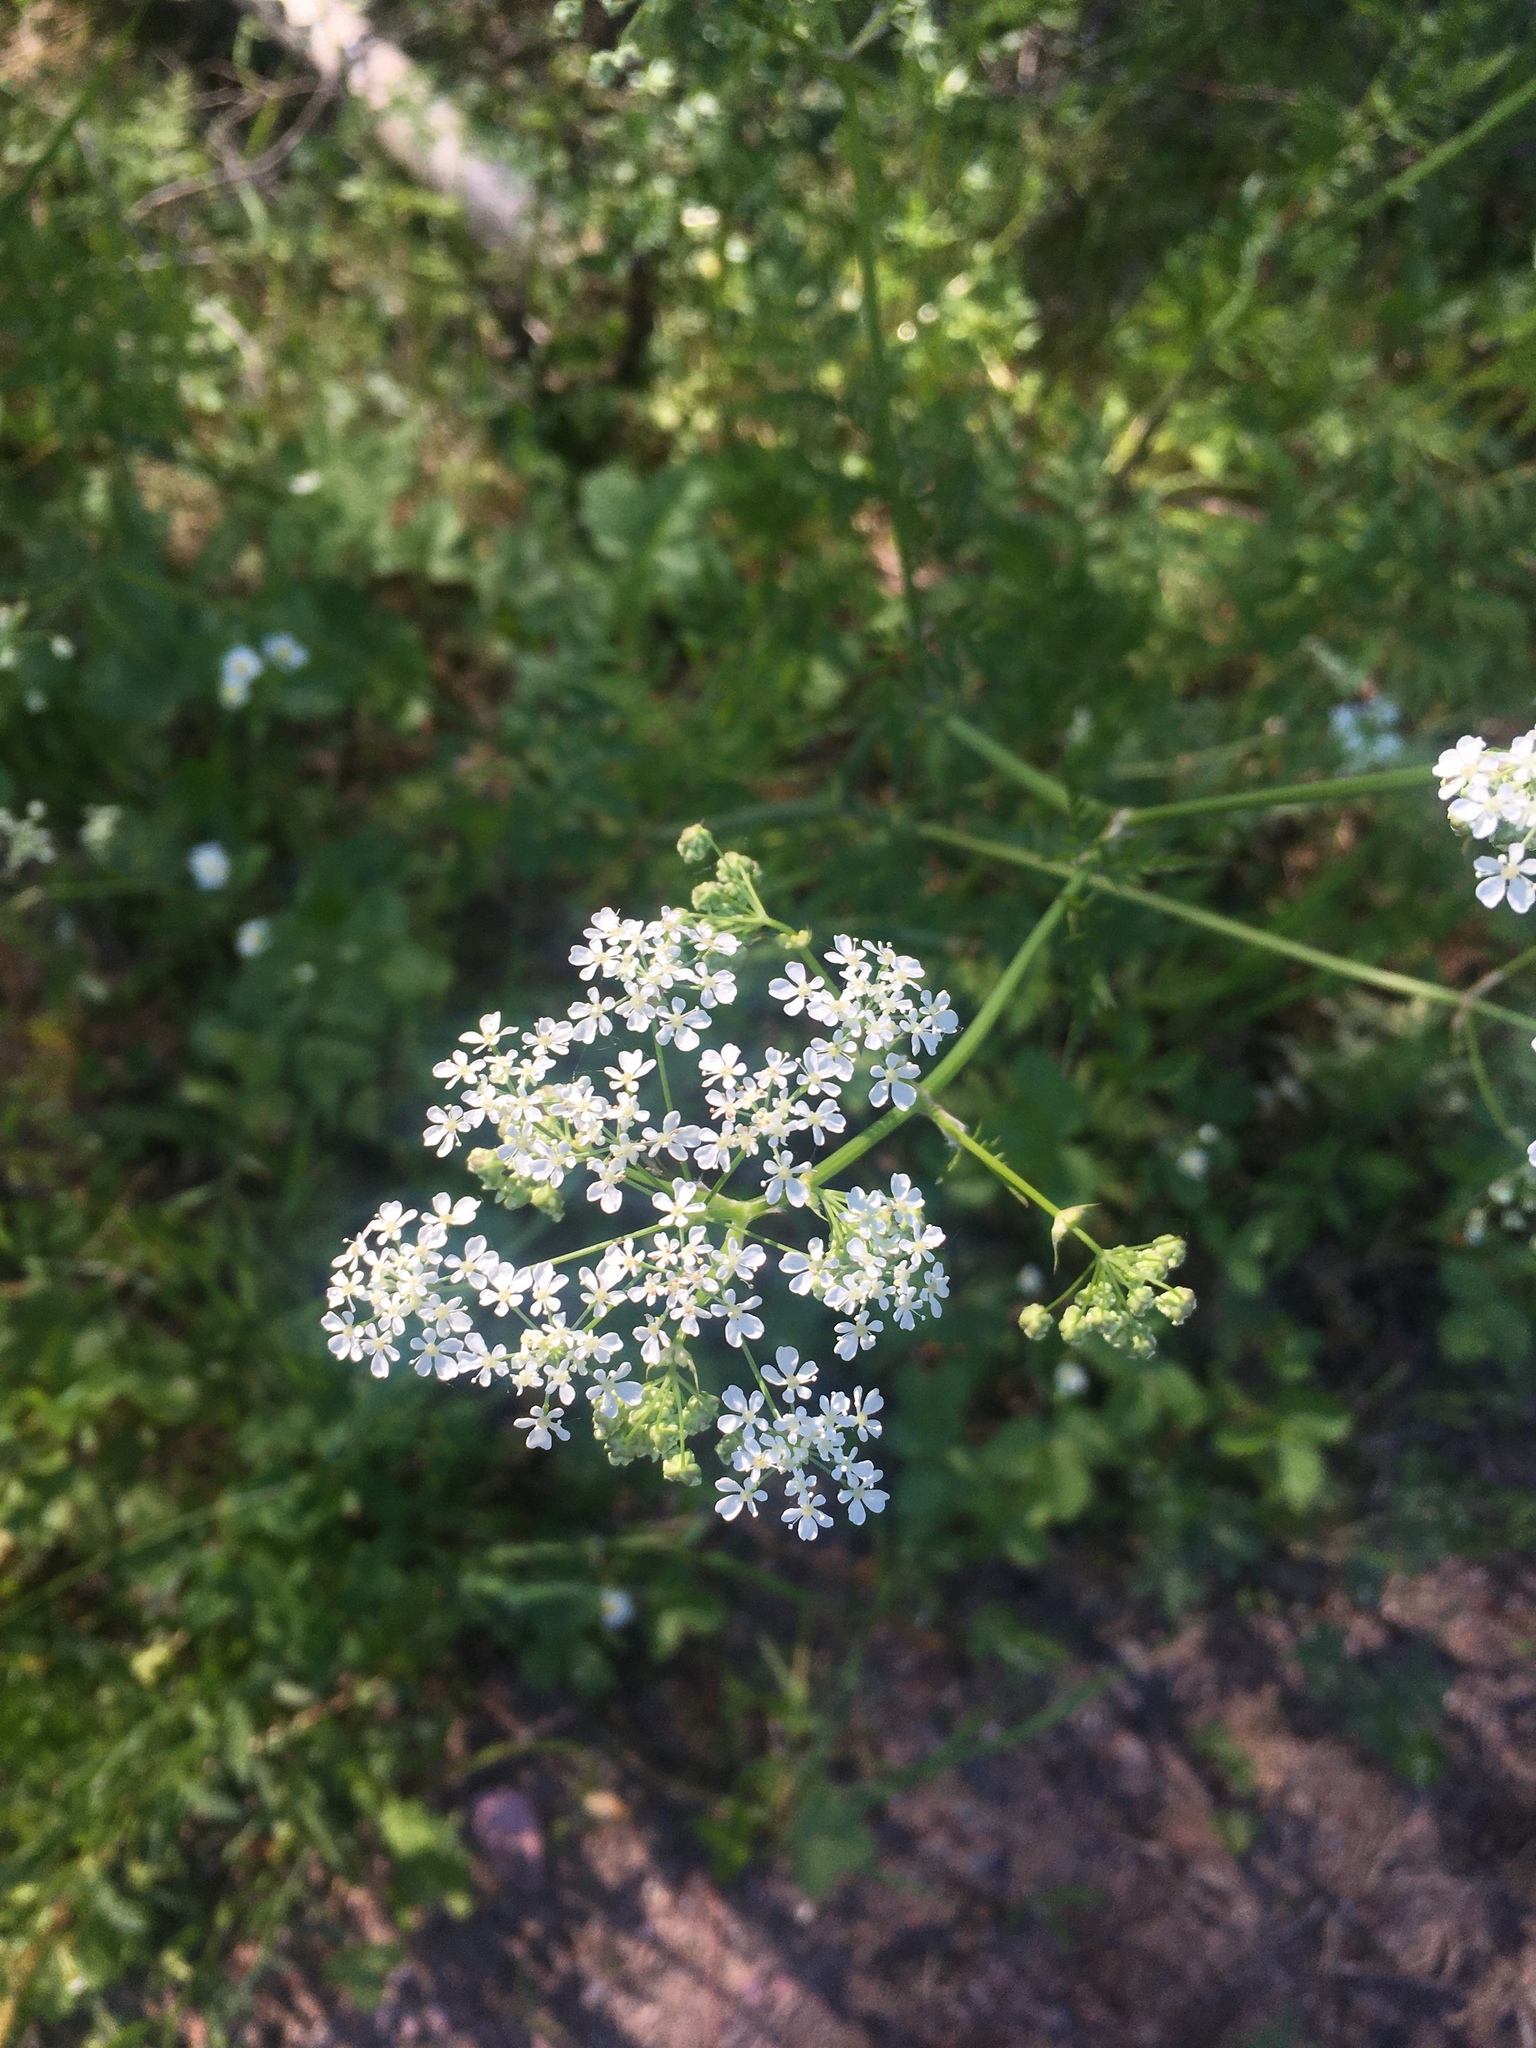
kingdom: Plantae
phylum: Tracheophyta
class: Magnoliopsida
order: Apiales
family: Apiaceae
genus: Anthriscus
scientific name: Anthriscus sylvestris
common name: Cow parsley
